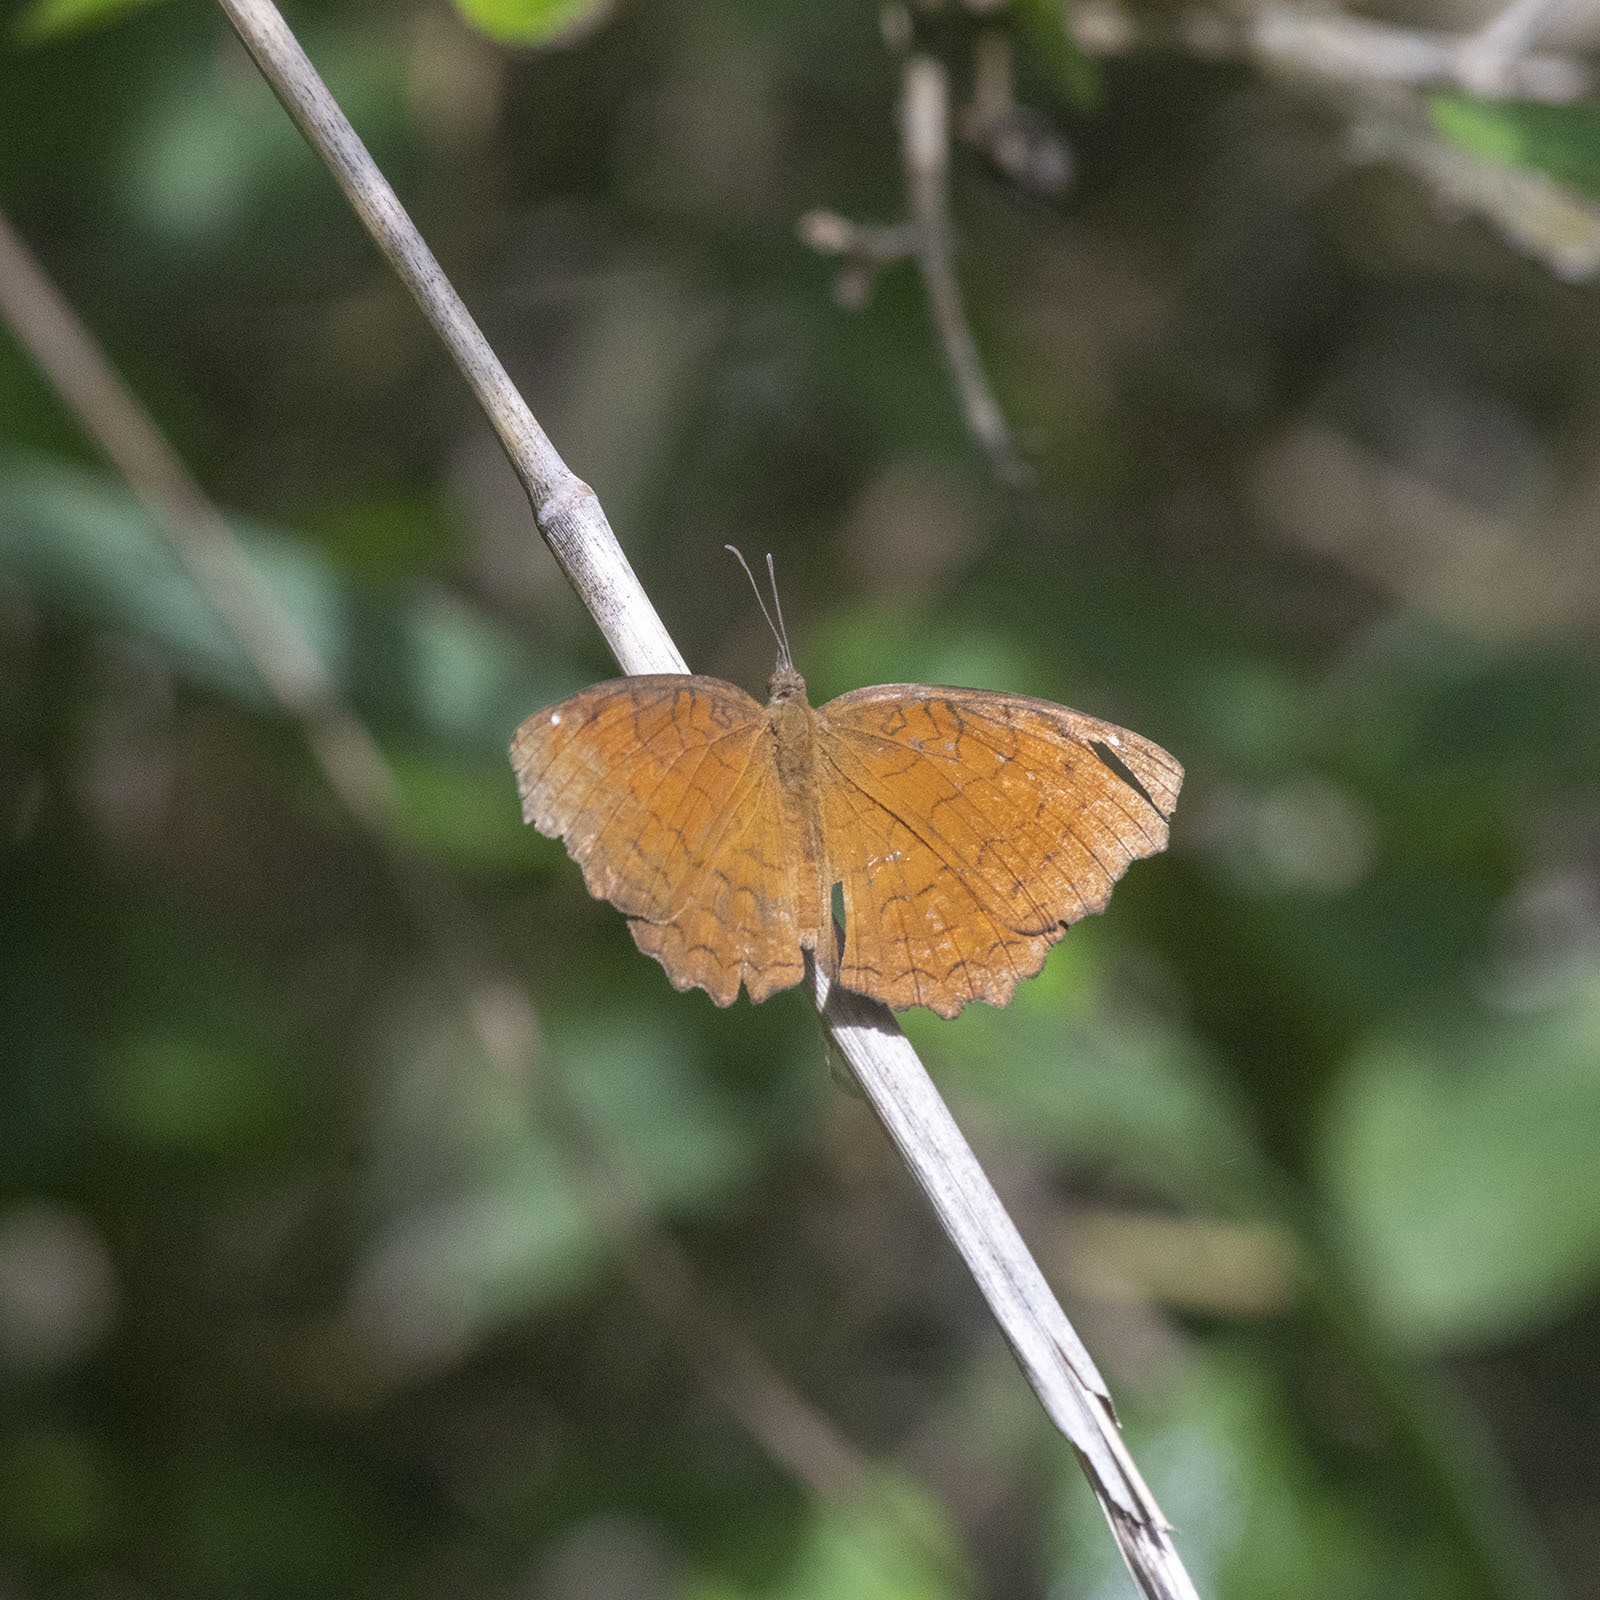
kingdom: Animalia
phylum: Arthropoda
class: Insecta
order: Lepidoptera
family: Nymphalidae
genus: Ariadne
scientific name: Ariadne ariadne
